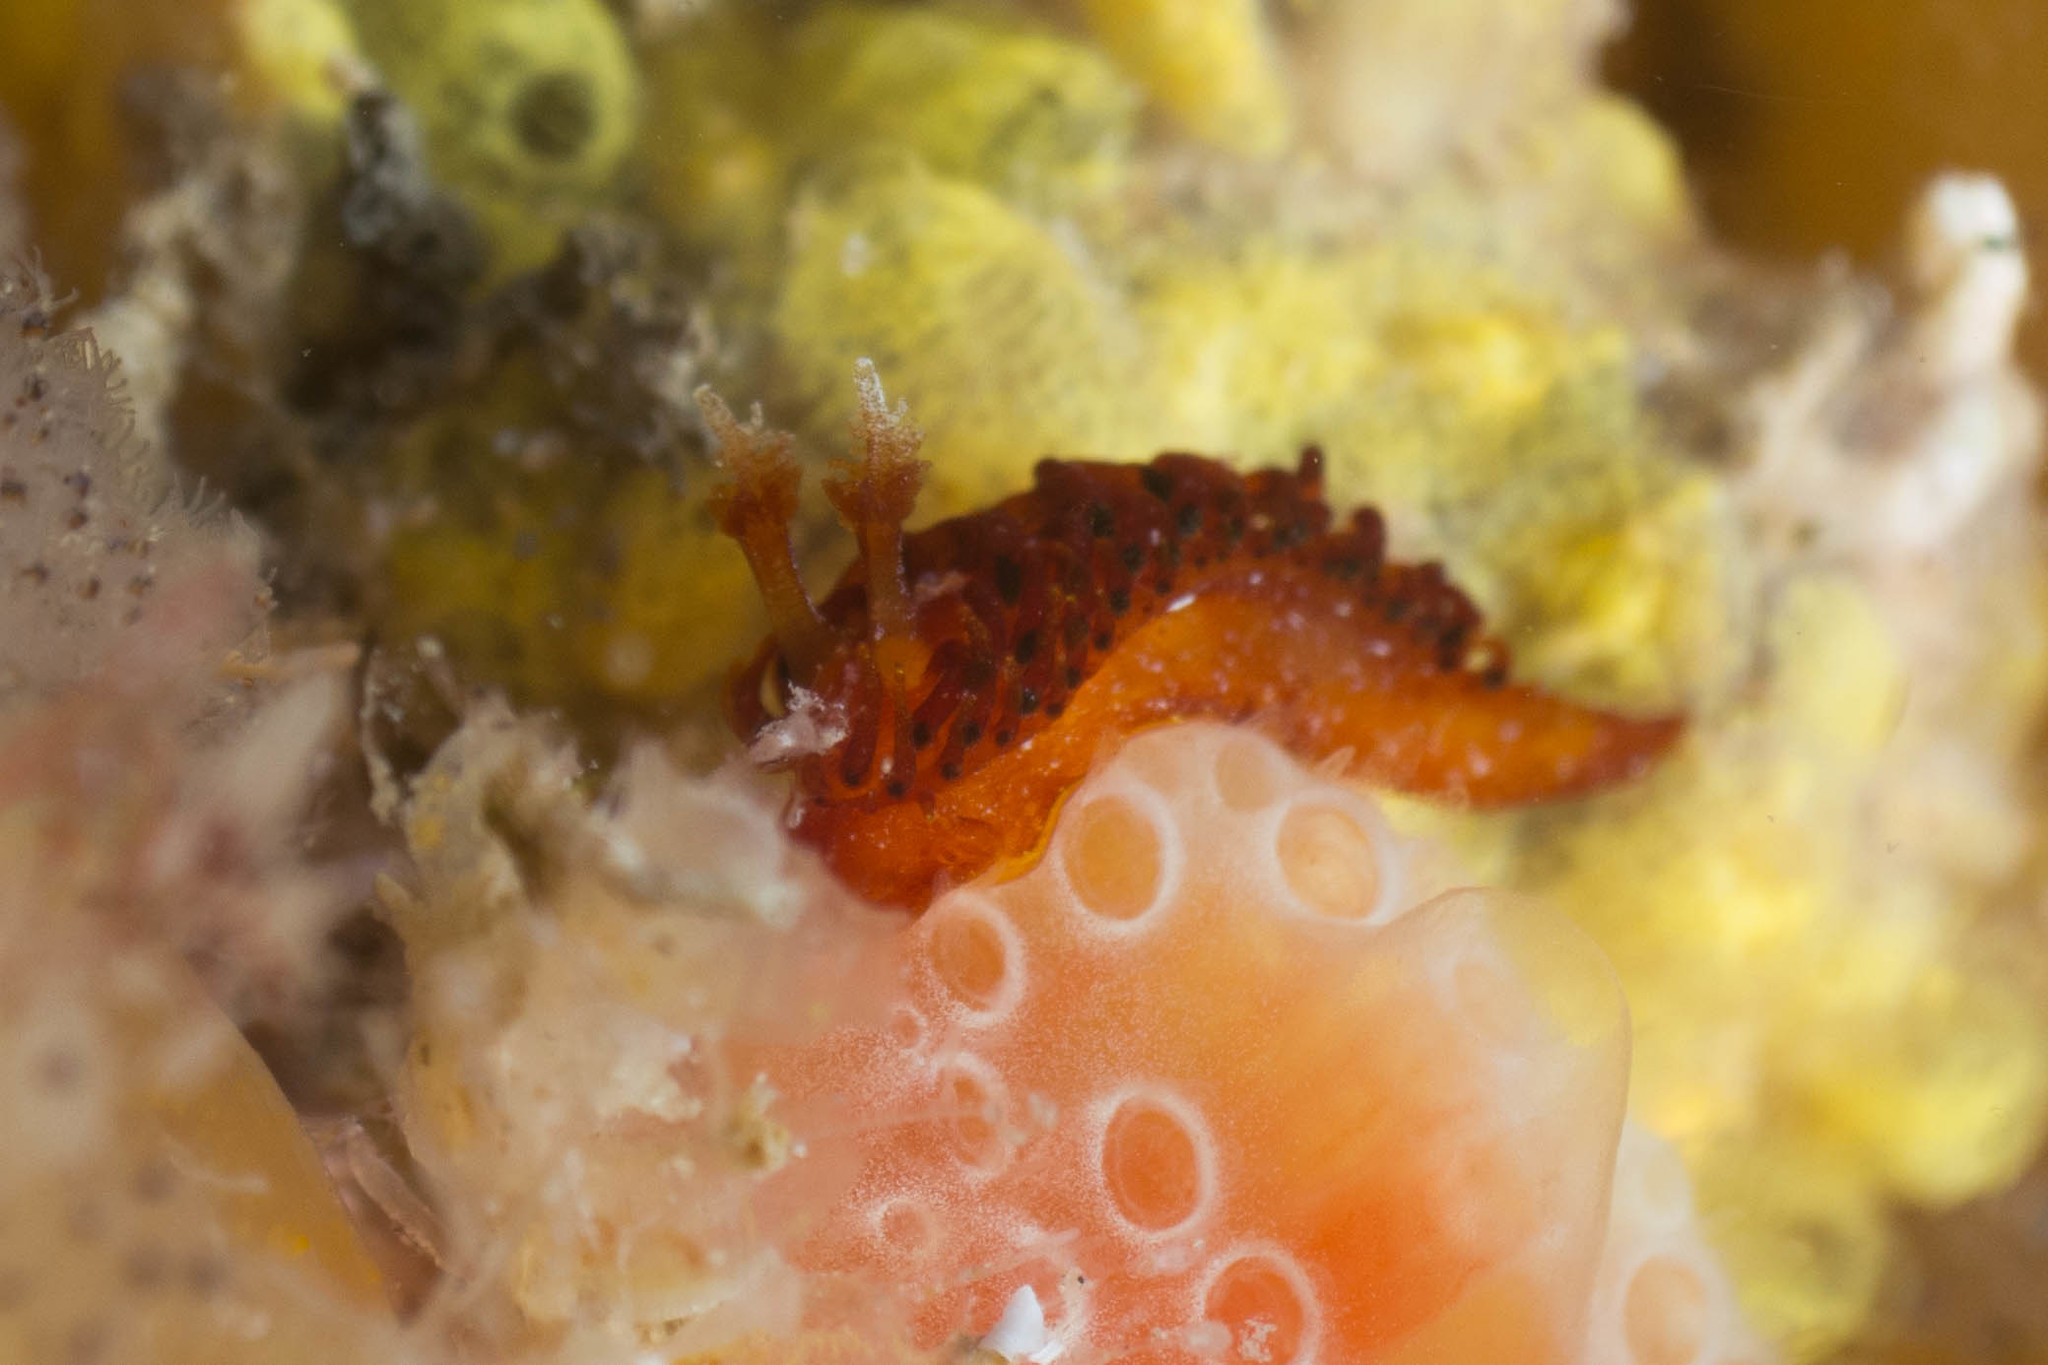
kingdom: Animalia
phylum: Mollusca
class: Gastropoda
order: Nudibranchia
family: Madrellidae
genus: Madrella
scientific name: Madrella ferruginosa
